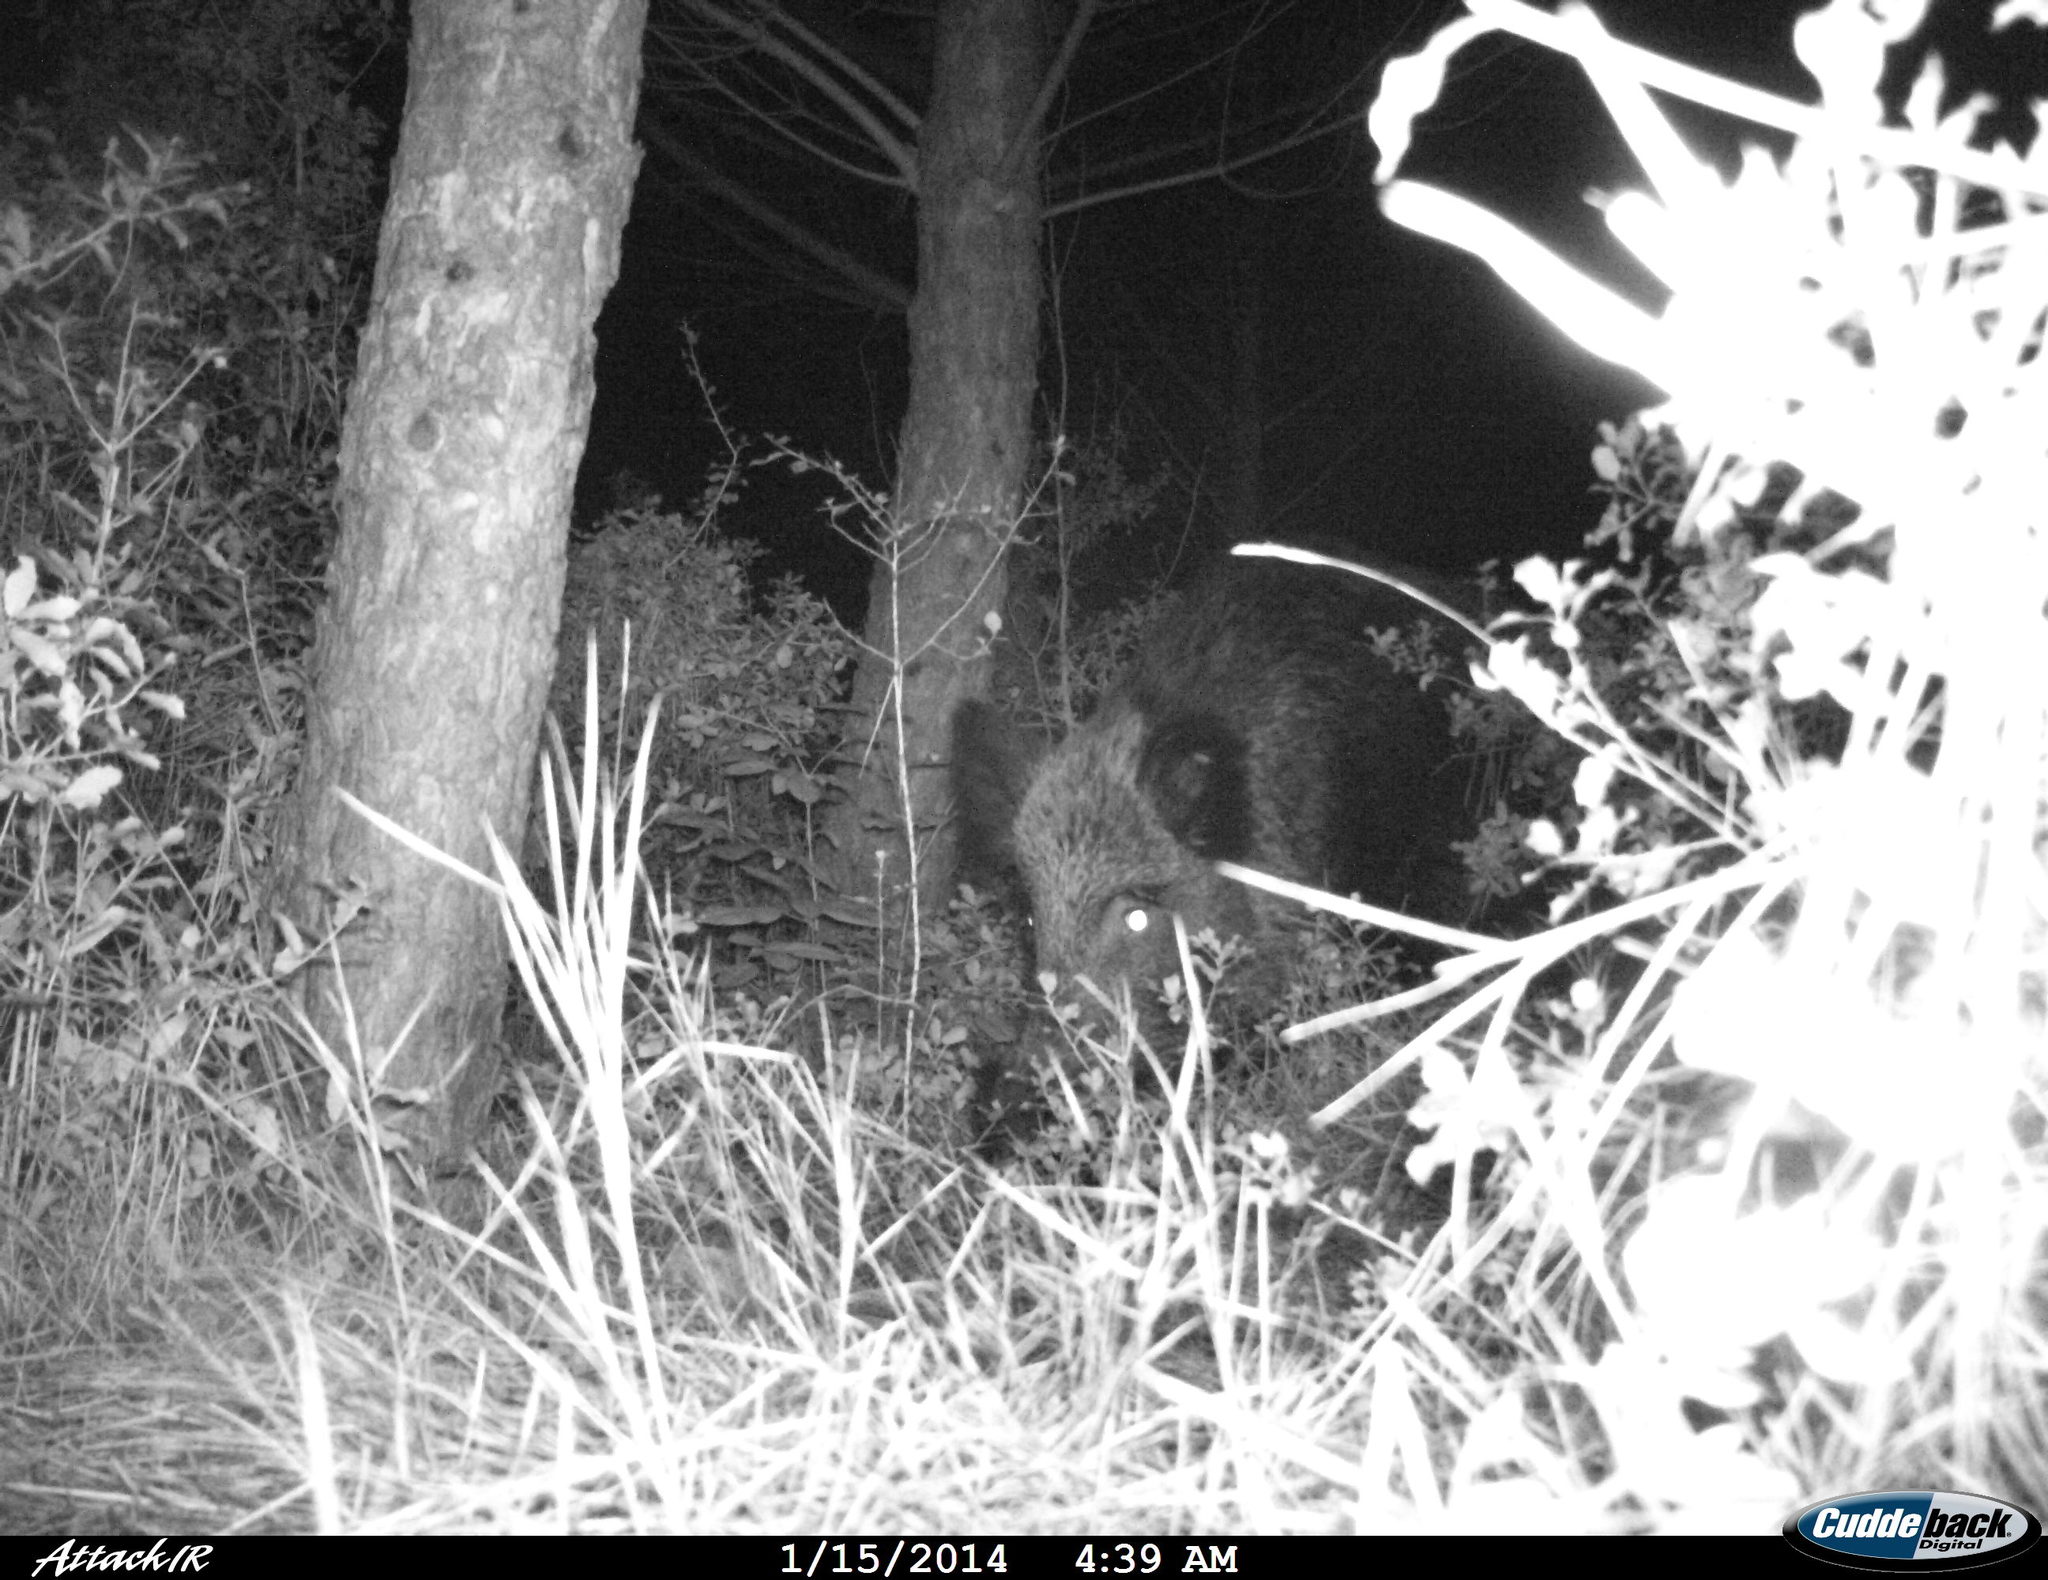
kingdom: Animalia
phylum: Chordata
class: Mammalia
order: Artiodactyla
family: Suidae
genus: Sus
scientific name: Sus scrofa
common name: Wild boar
